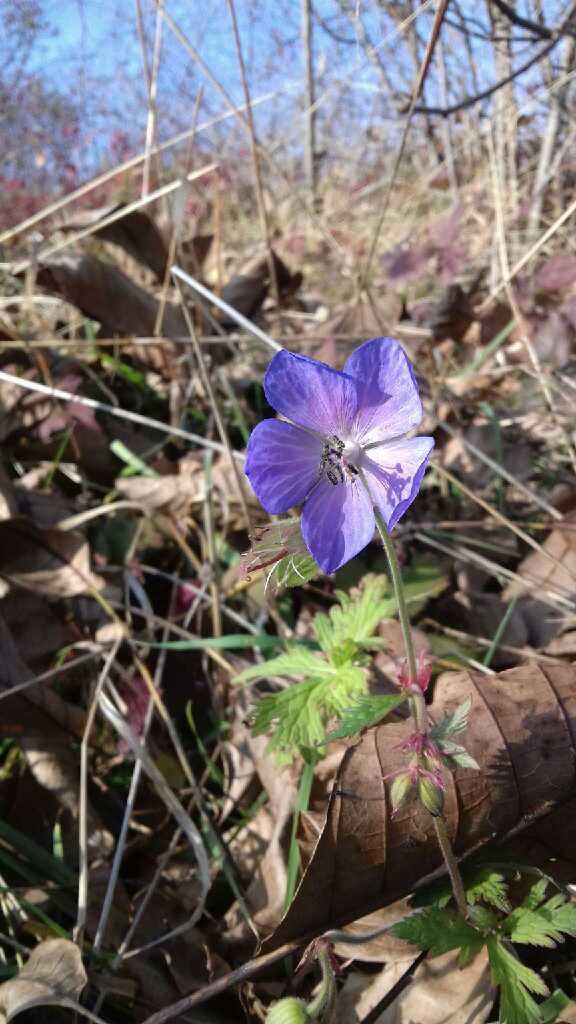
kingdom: Plantae
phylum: Tracheophyta
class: Magnoliopsida
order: Geraniales
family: Geraniaceae
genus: Geranium
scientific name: Geranium pratense
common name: Meadow crane's-bill
